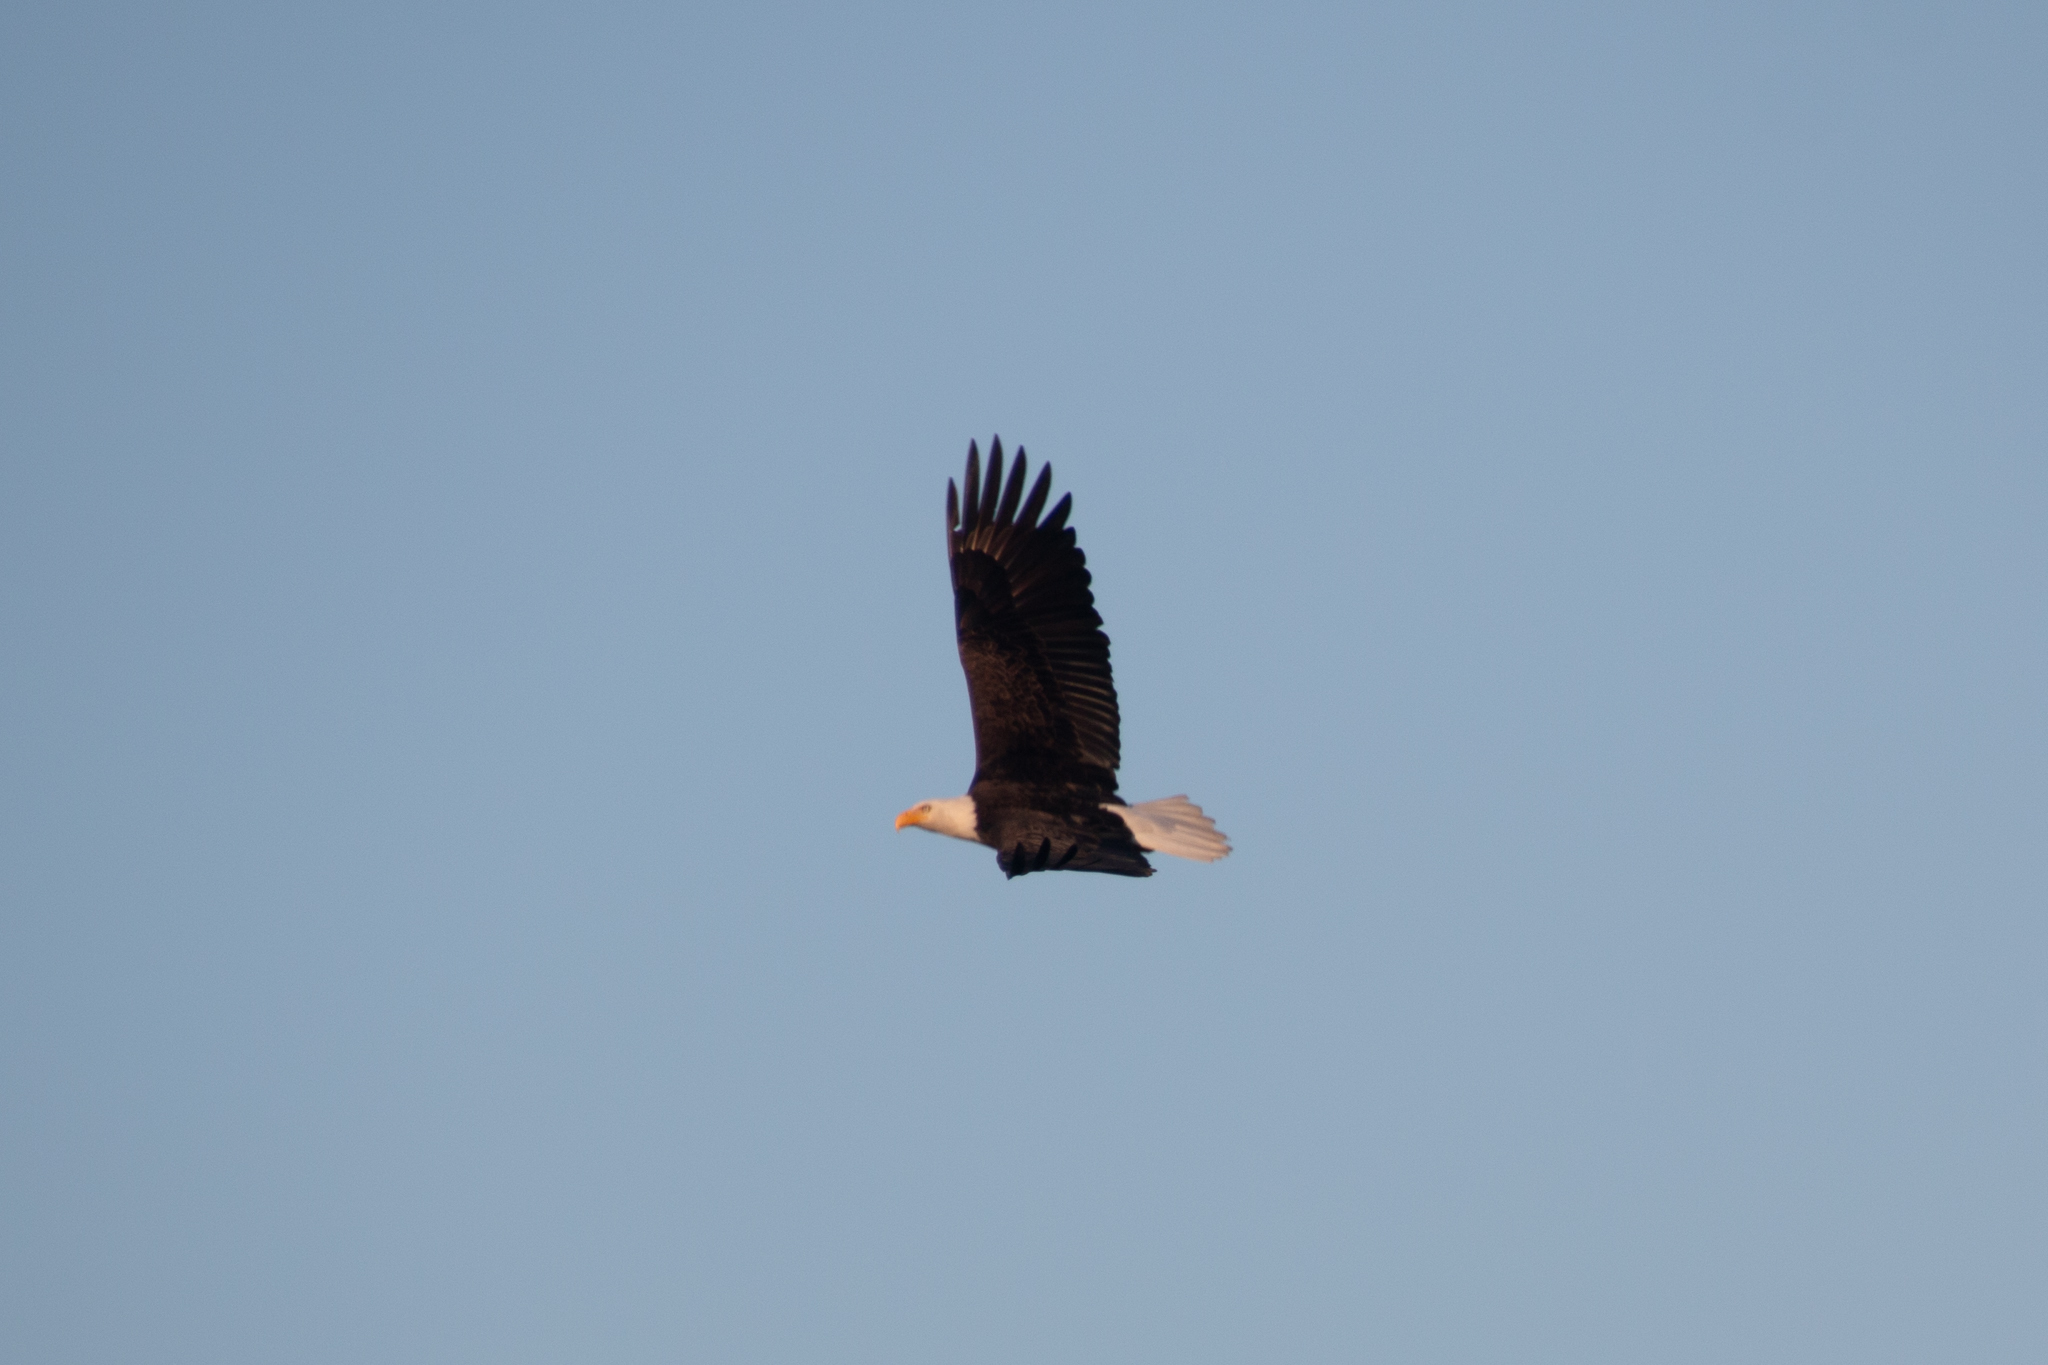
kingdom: Animalia
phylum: Chordata
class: Aves
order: Accipitriformes
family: Accipitridae
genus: Haliaeetus
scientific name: Haliaeetus leucocephalus
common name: Bald eagle
